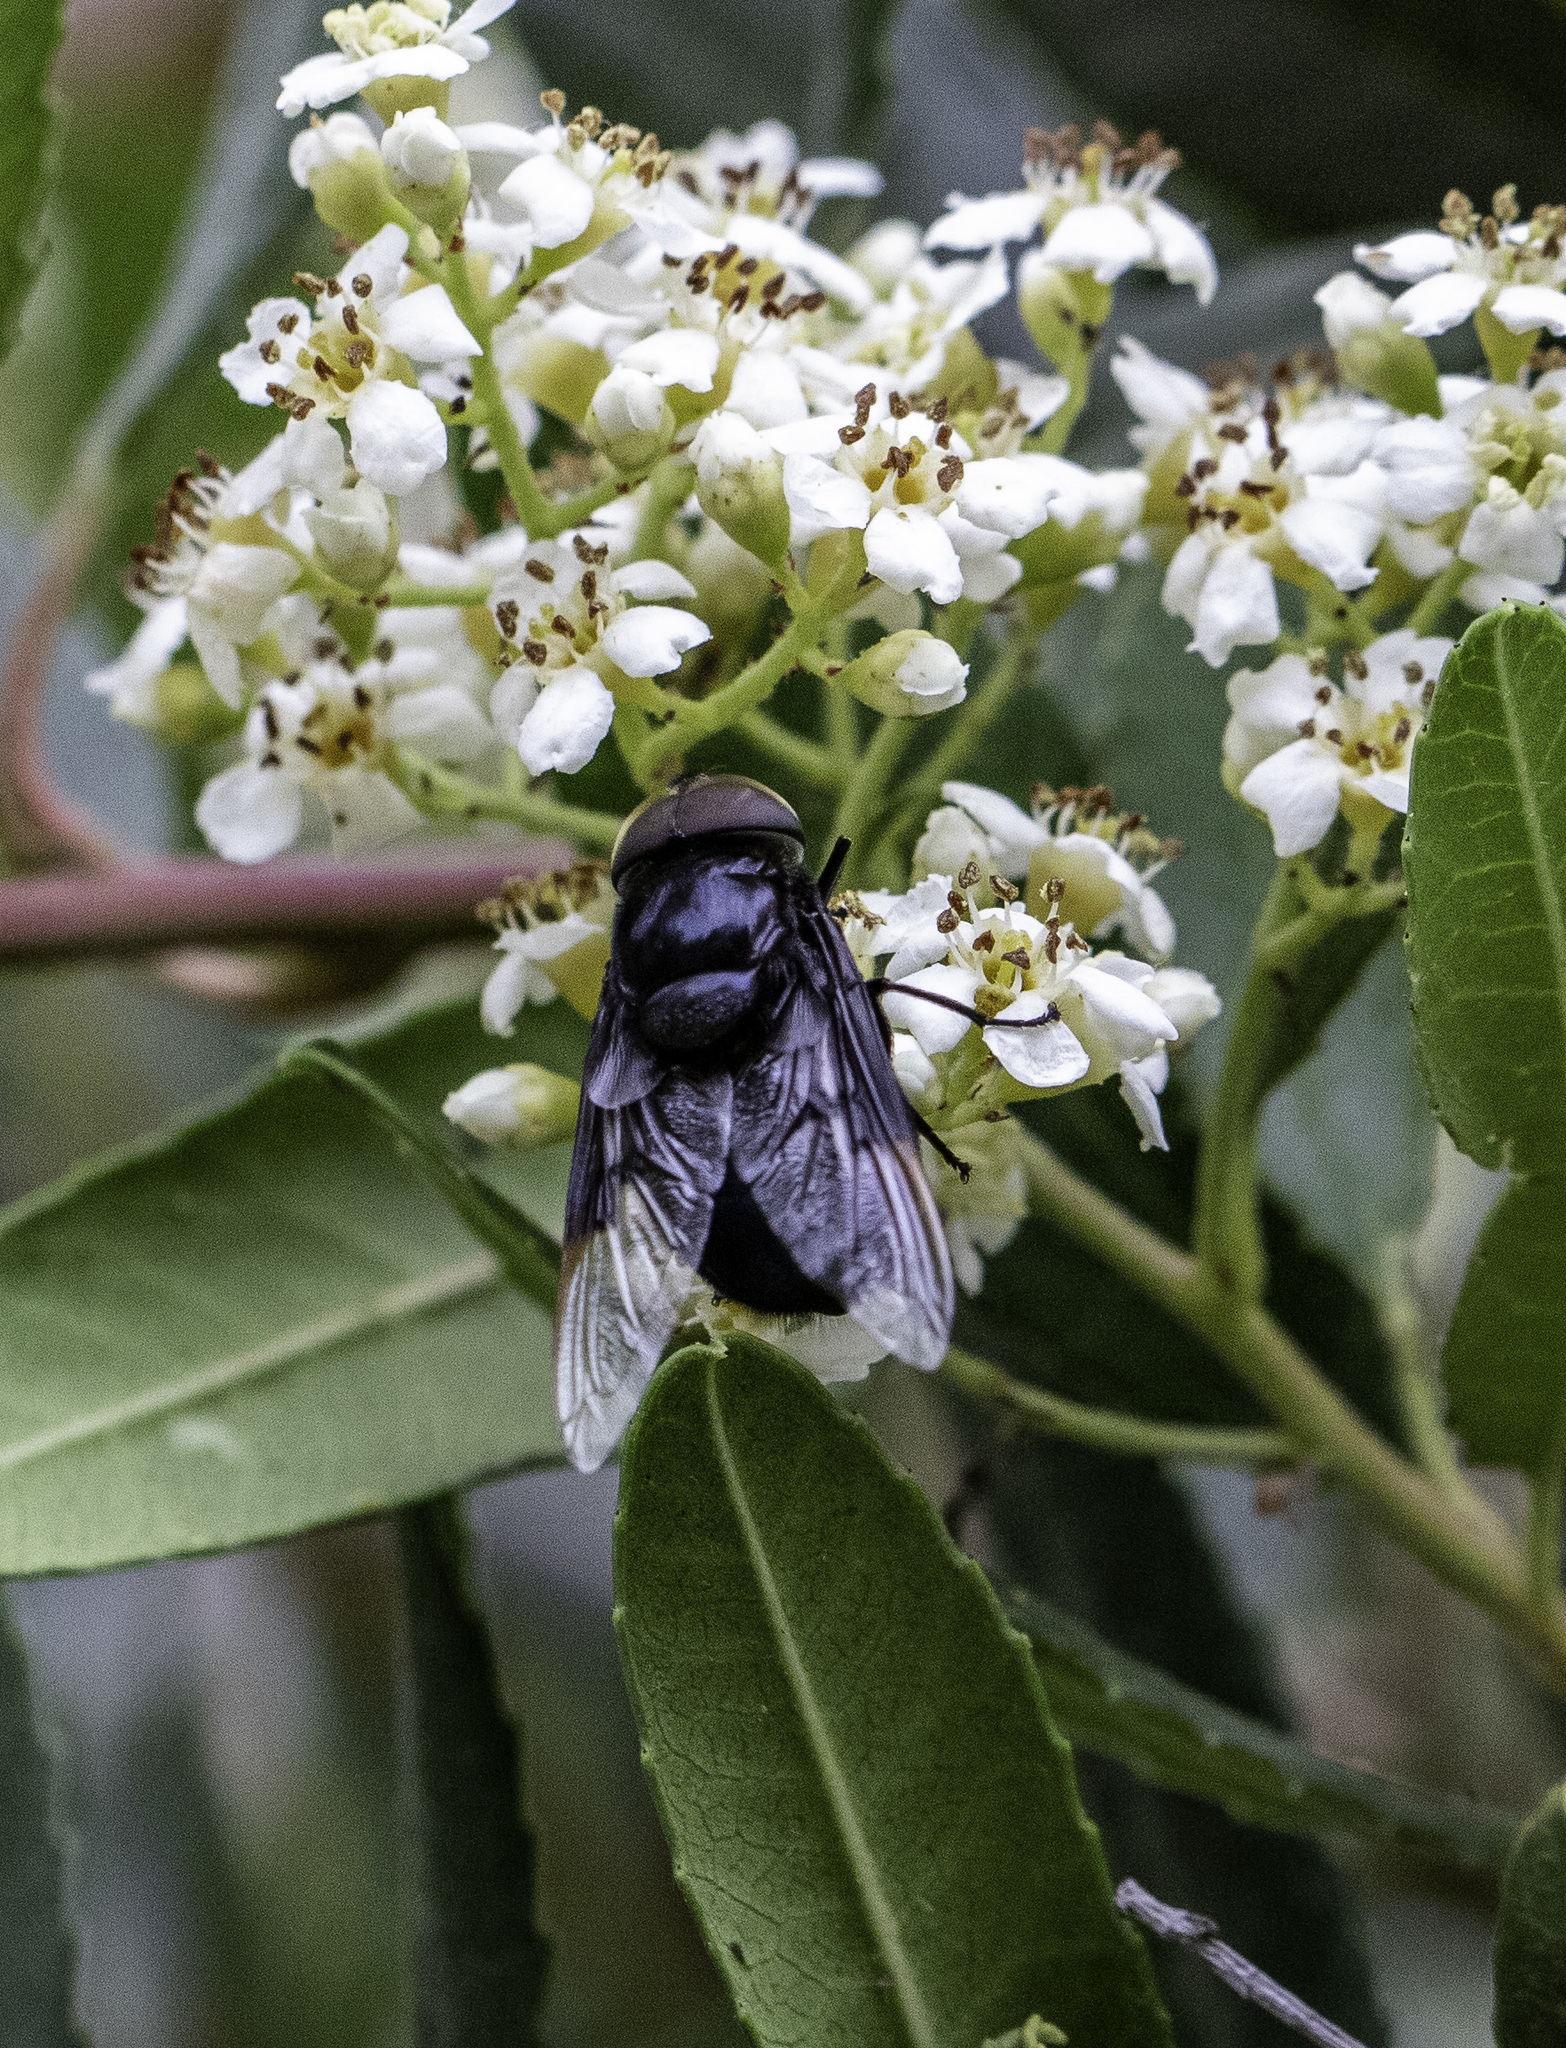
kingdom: Animalia
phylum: Arthropoda
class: Insecta
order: Diptera
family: Syrphidae
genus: Copestylum
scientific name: Copestylum
